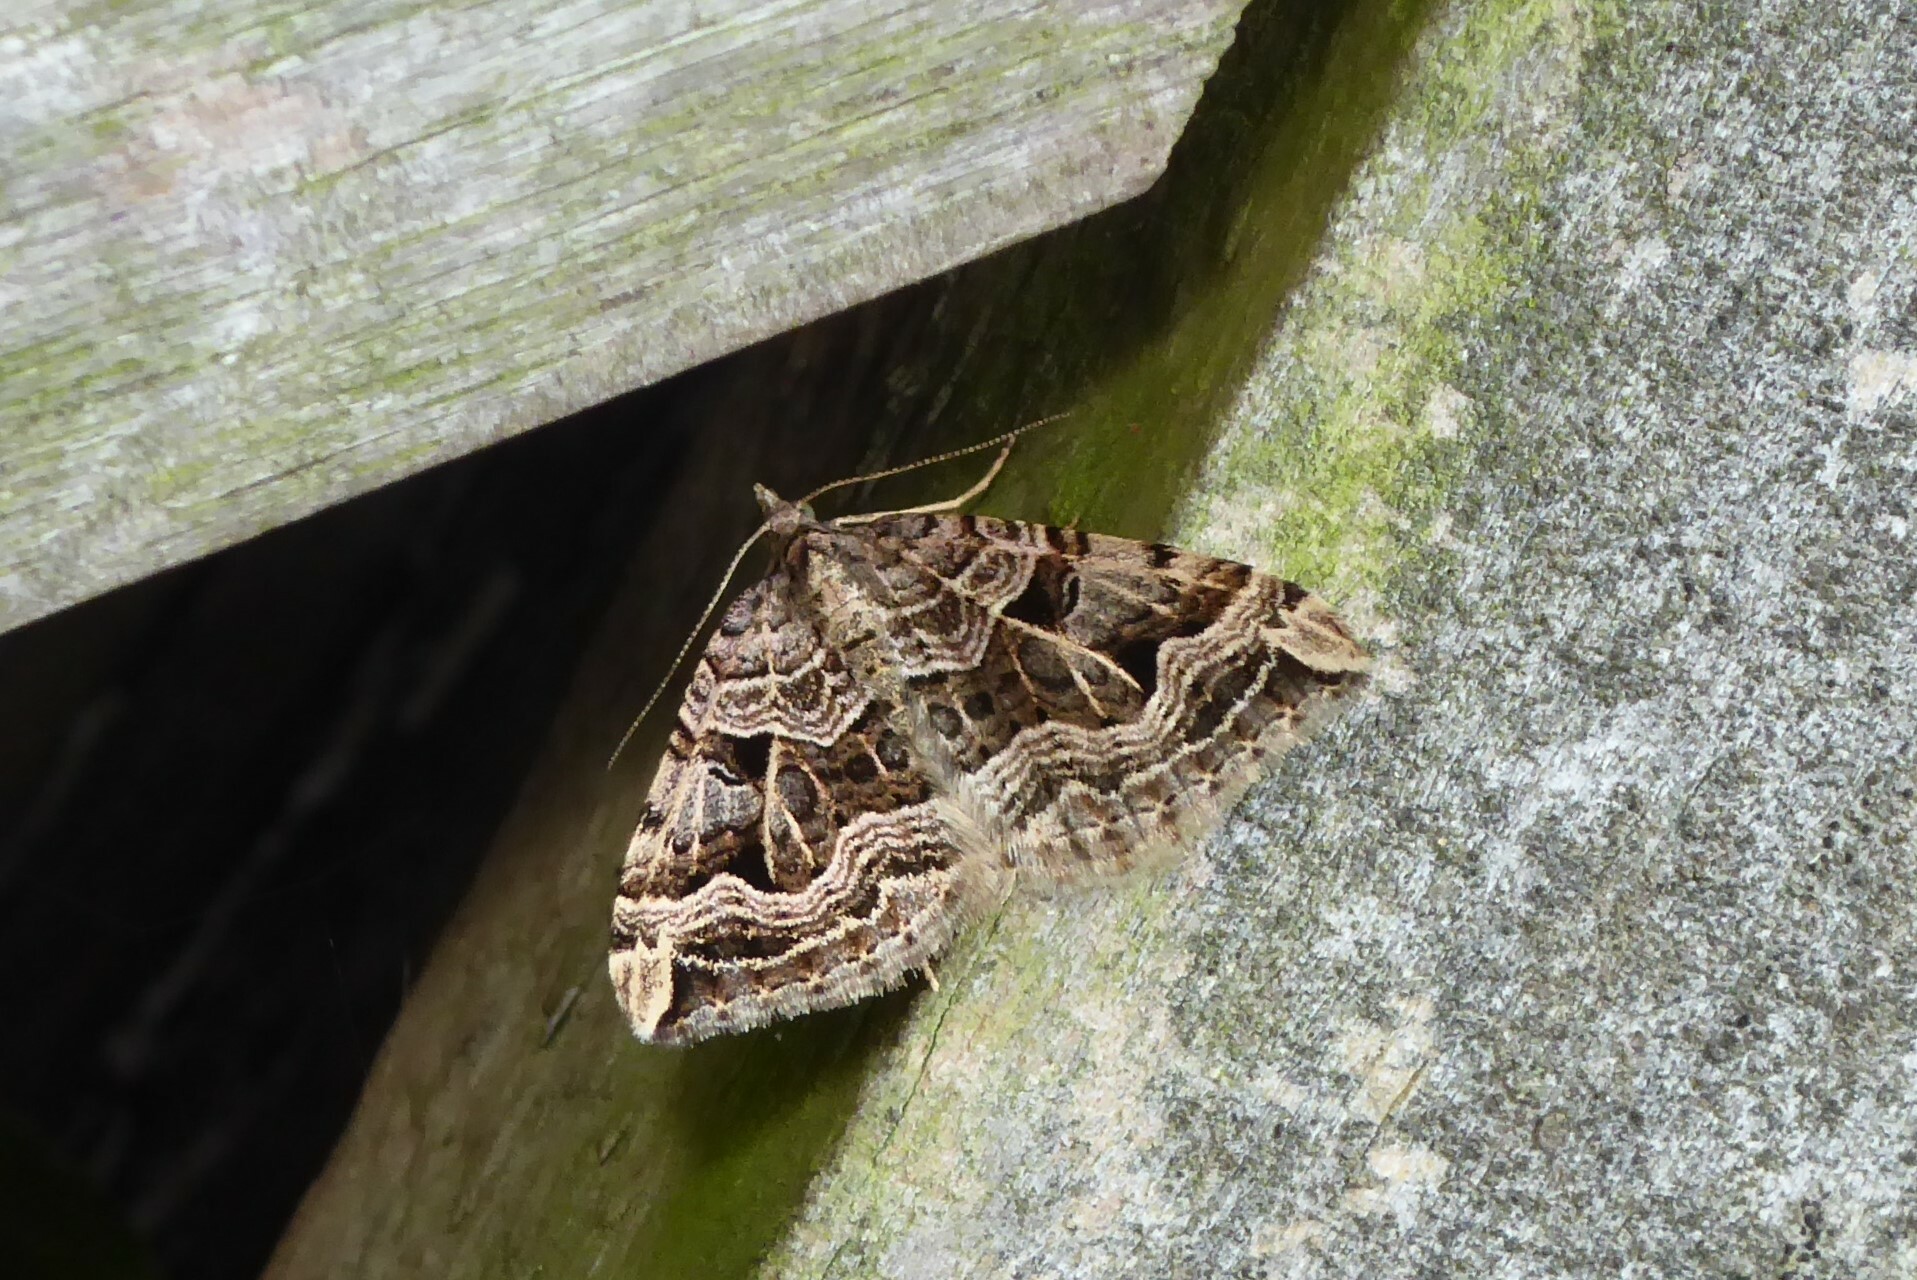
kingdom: Animalia
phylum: Arthropoda
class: Insecta
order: Lepidoptera
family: Geometridae
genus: Xanthorhoe
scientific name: Xanthorhoe semifissata
